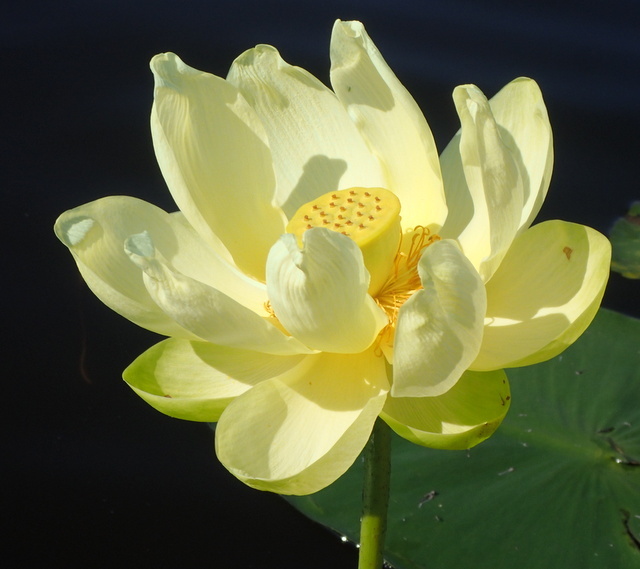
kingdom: Plantae
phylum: Tracheophyta
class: Magnoliopsida
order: Proteales
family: Nelumbonaceae
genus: Nelumbo
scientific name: Nelumbo lutea
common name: American lotus
